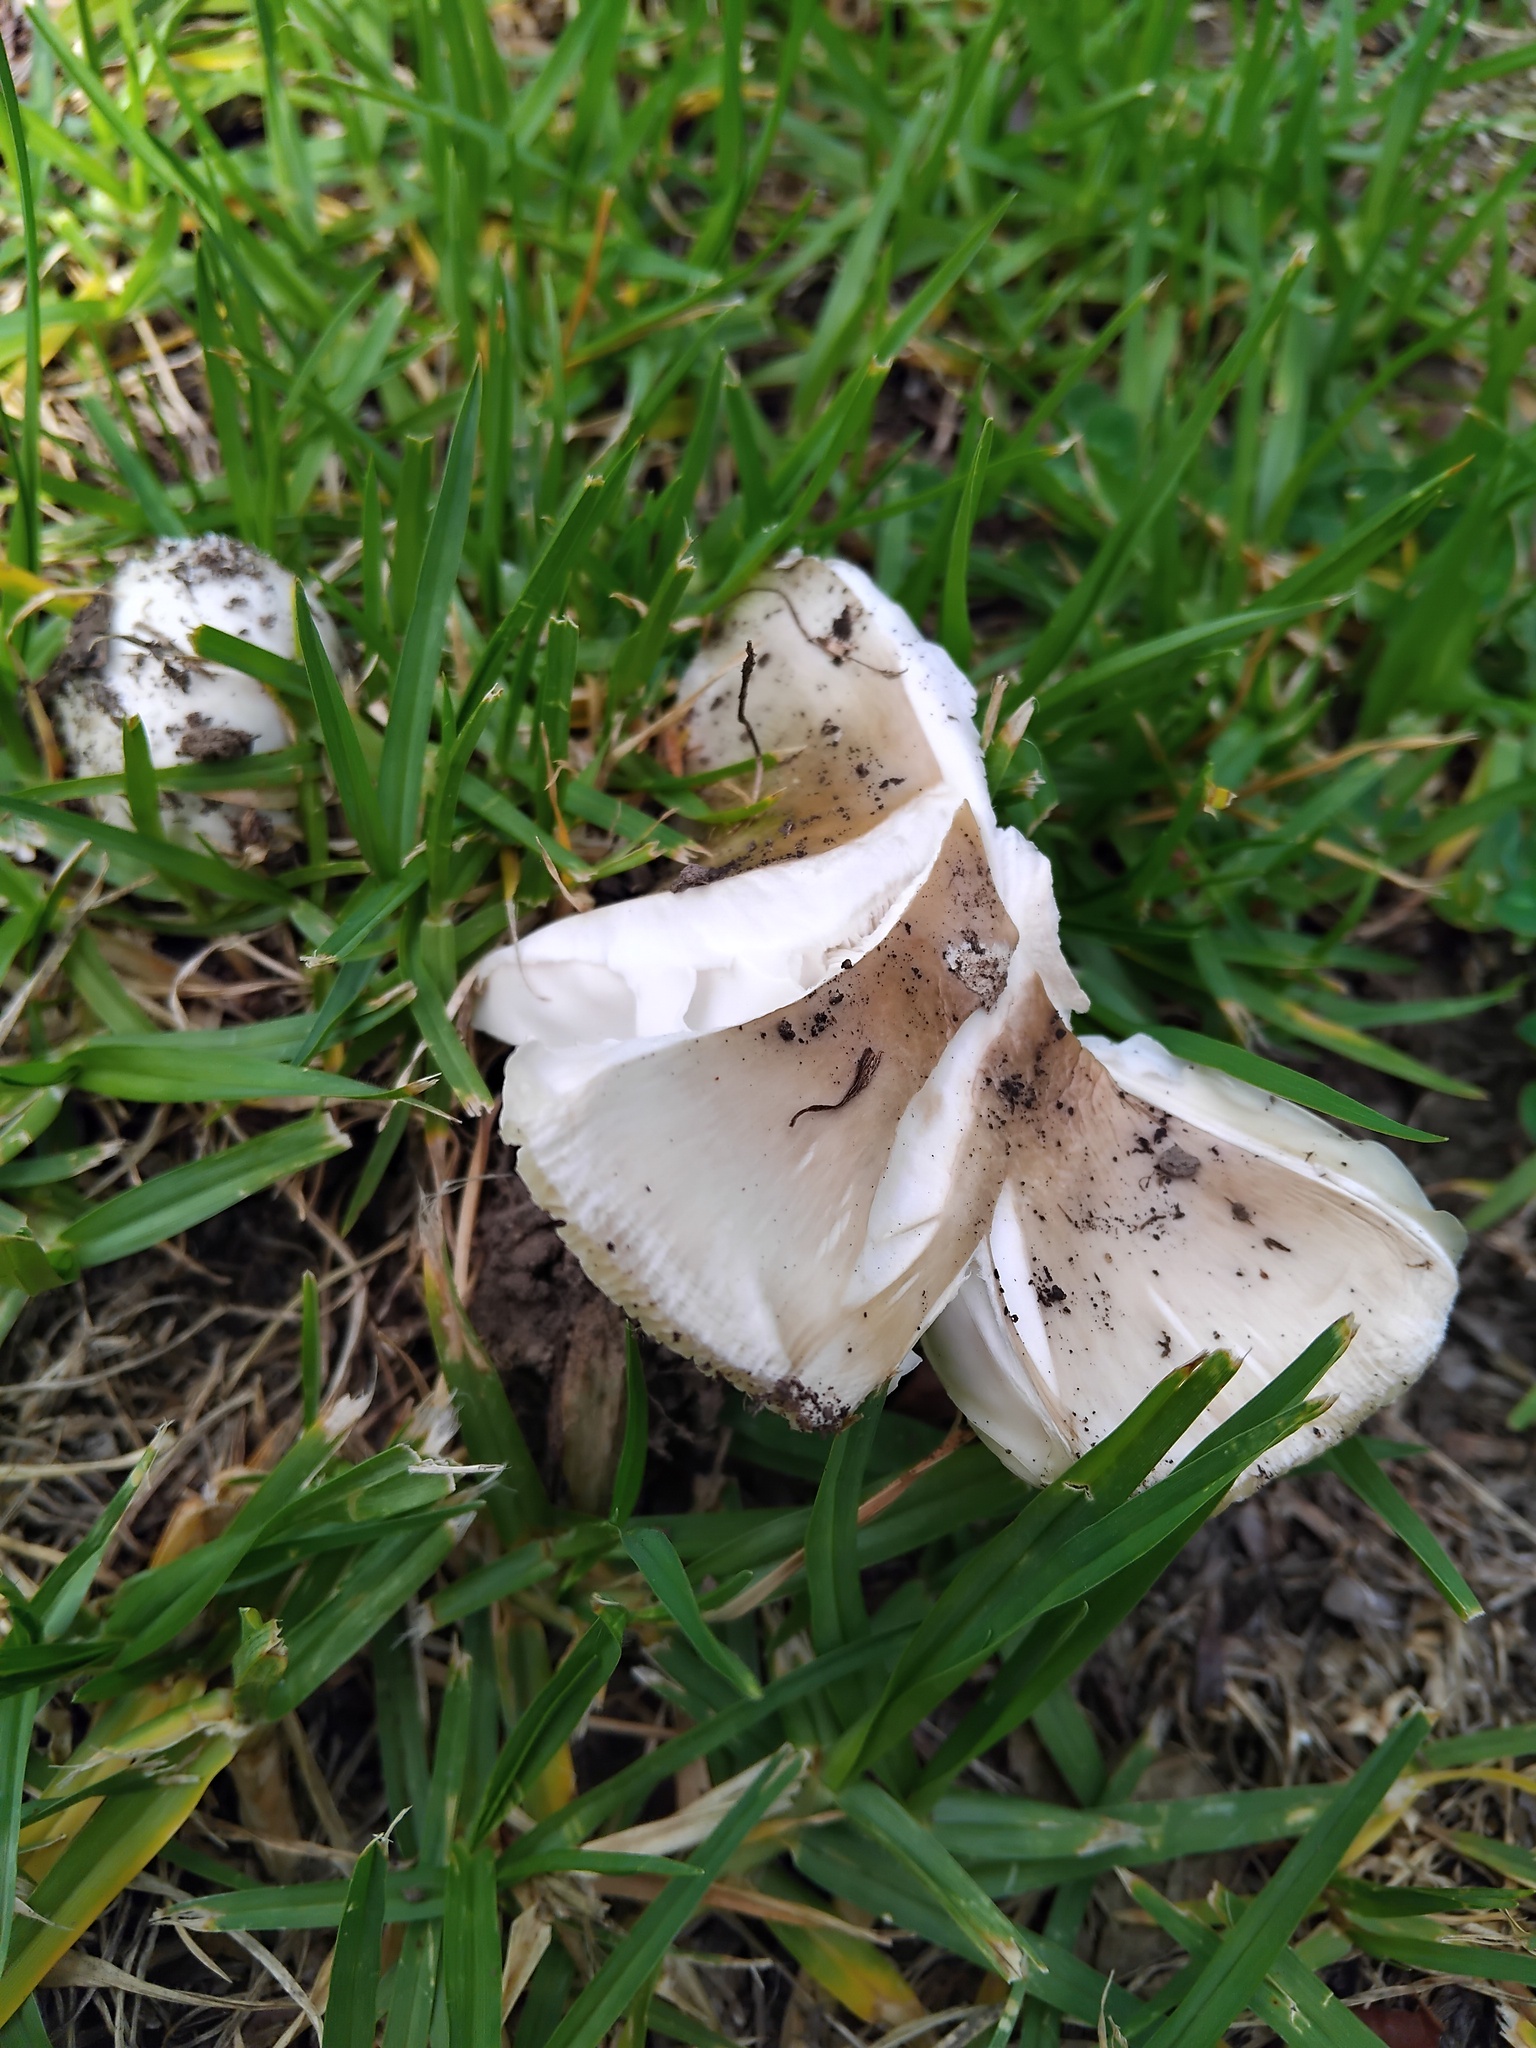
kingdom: Fungi
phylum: Basidiomycota
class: Agaricomycetes
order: Agaricales
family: Amanitaceae
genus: Amanita
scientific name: Amanita marmorata
